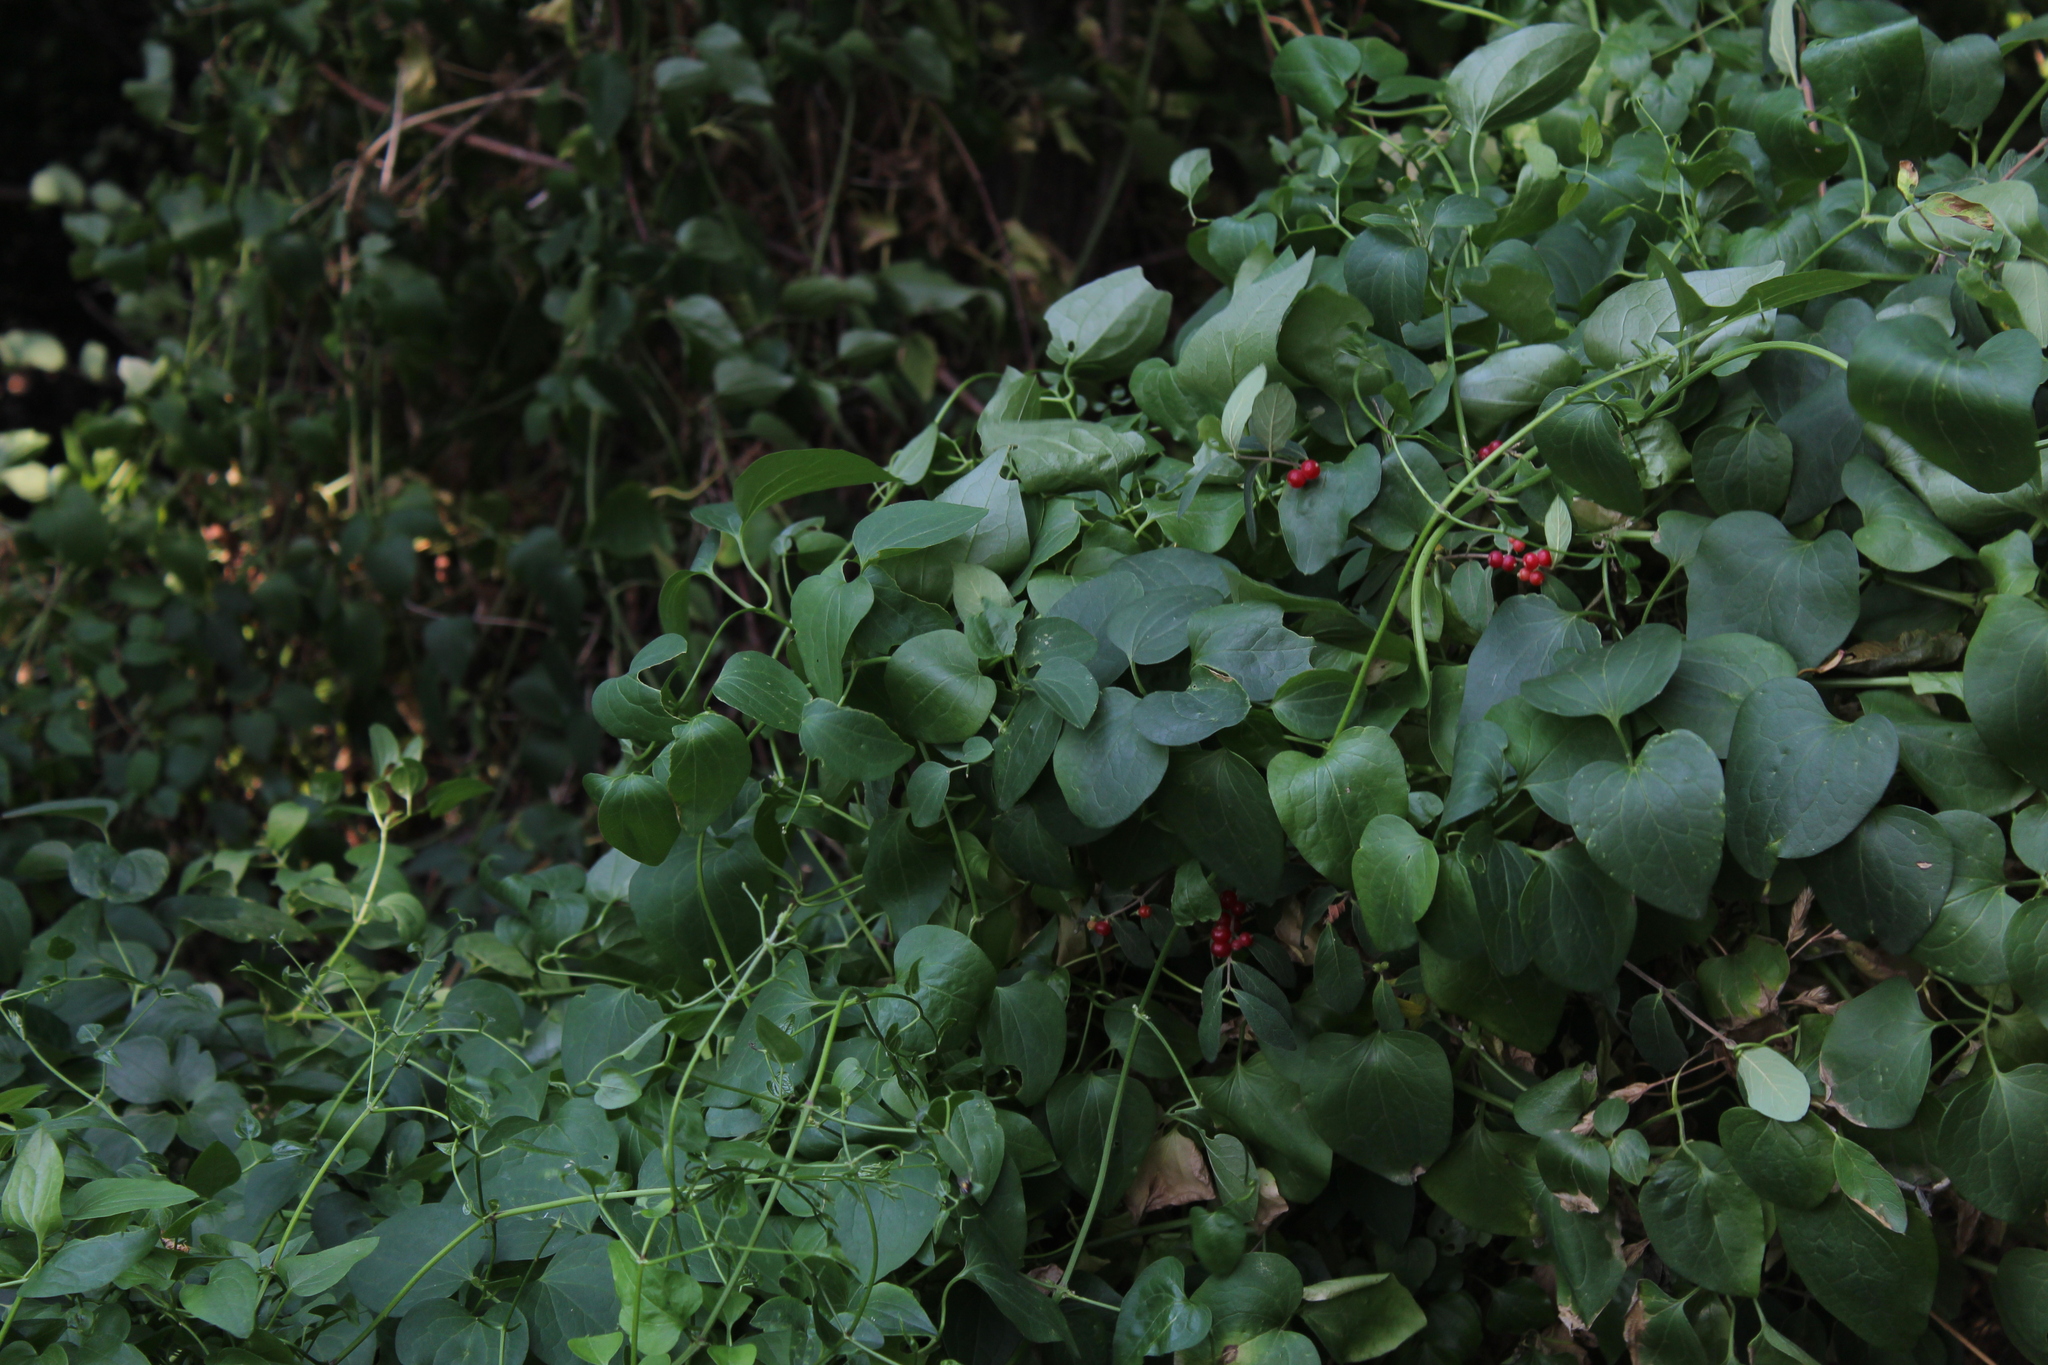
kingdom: Plantae
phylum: Tracheophyta
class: Magnoliopsida
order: Ranunculales
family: Ranunculaceae
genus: Clematis
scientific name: Clematis terniflora
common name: Sweet autumn clematis
